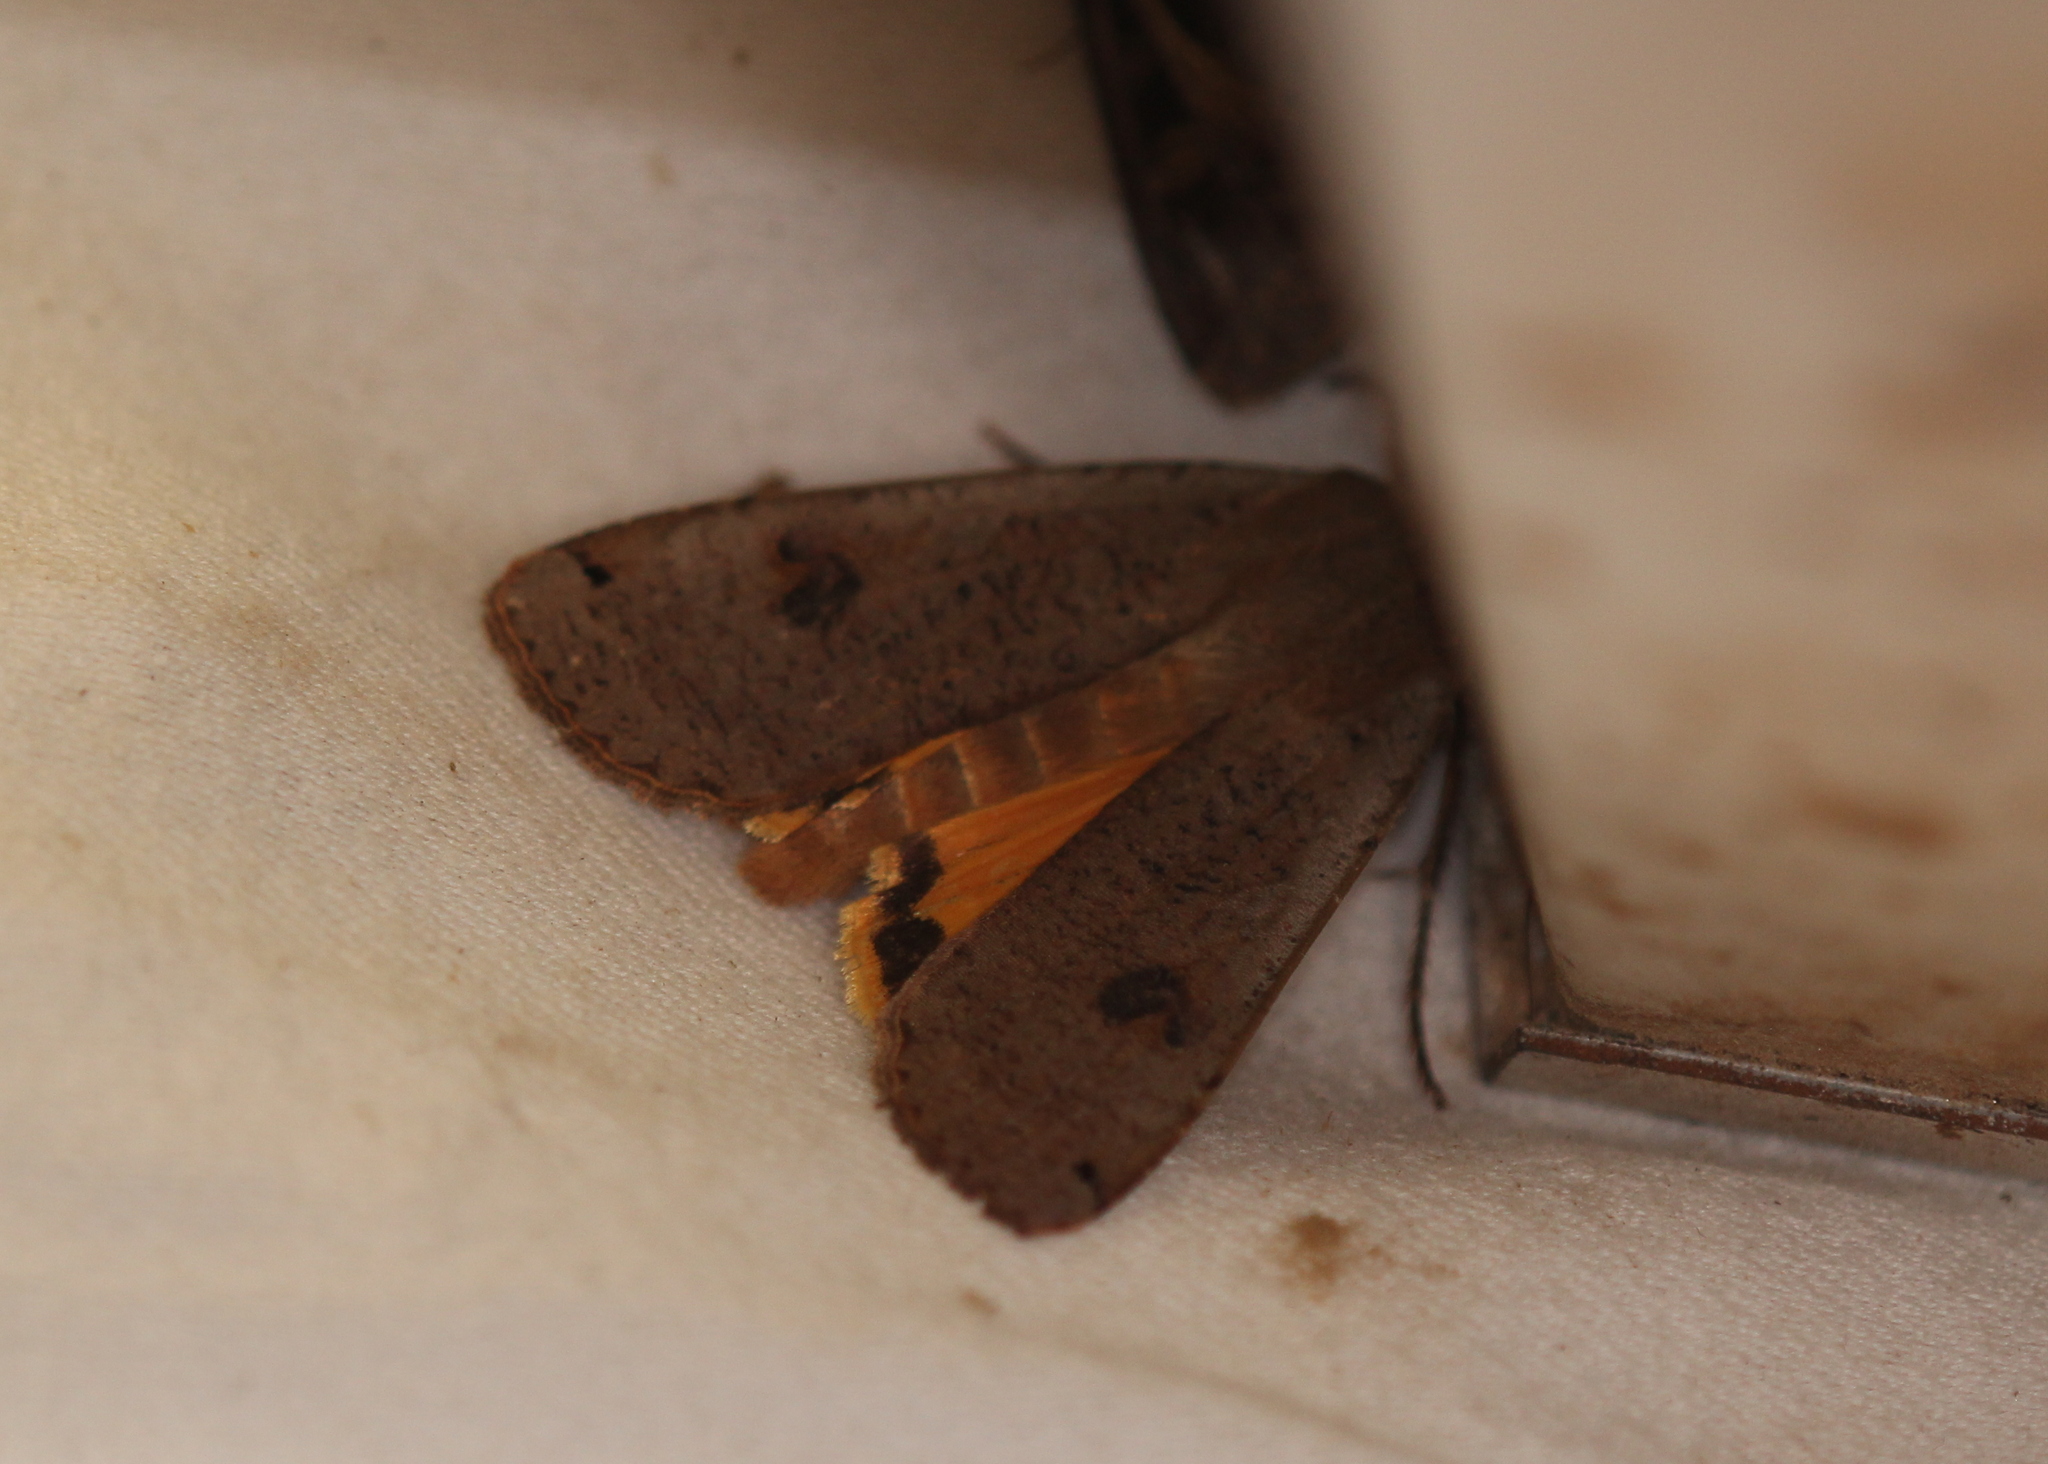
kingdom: Animalia
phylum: Arthropoda
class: Insecta
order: Lepidoptera
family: Noctuidae
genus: Noctua
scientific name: Noctua pronuba
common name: Large yellow underwing
